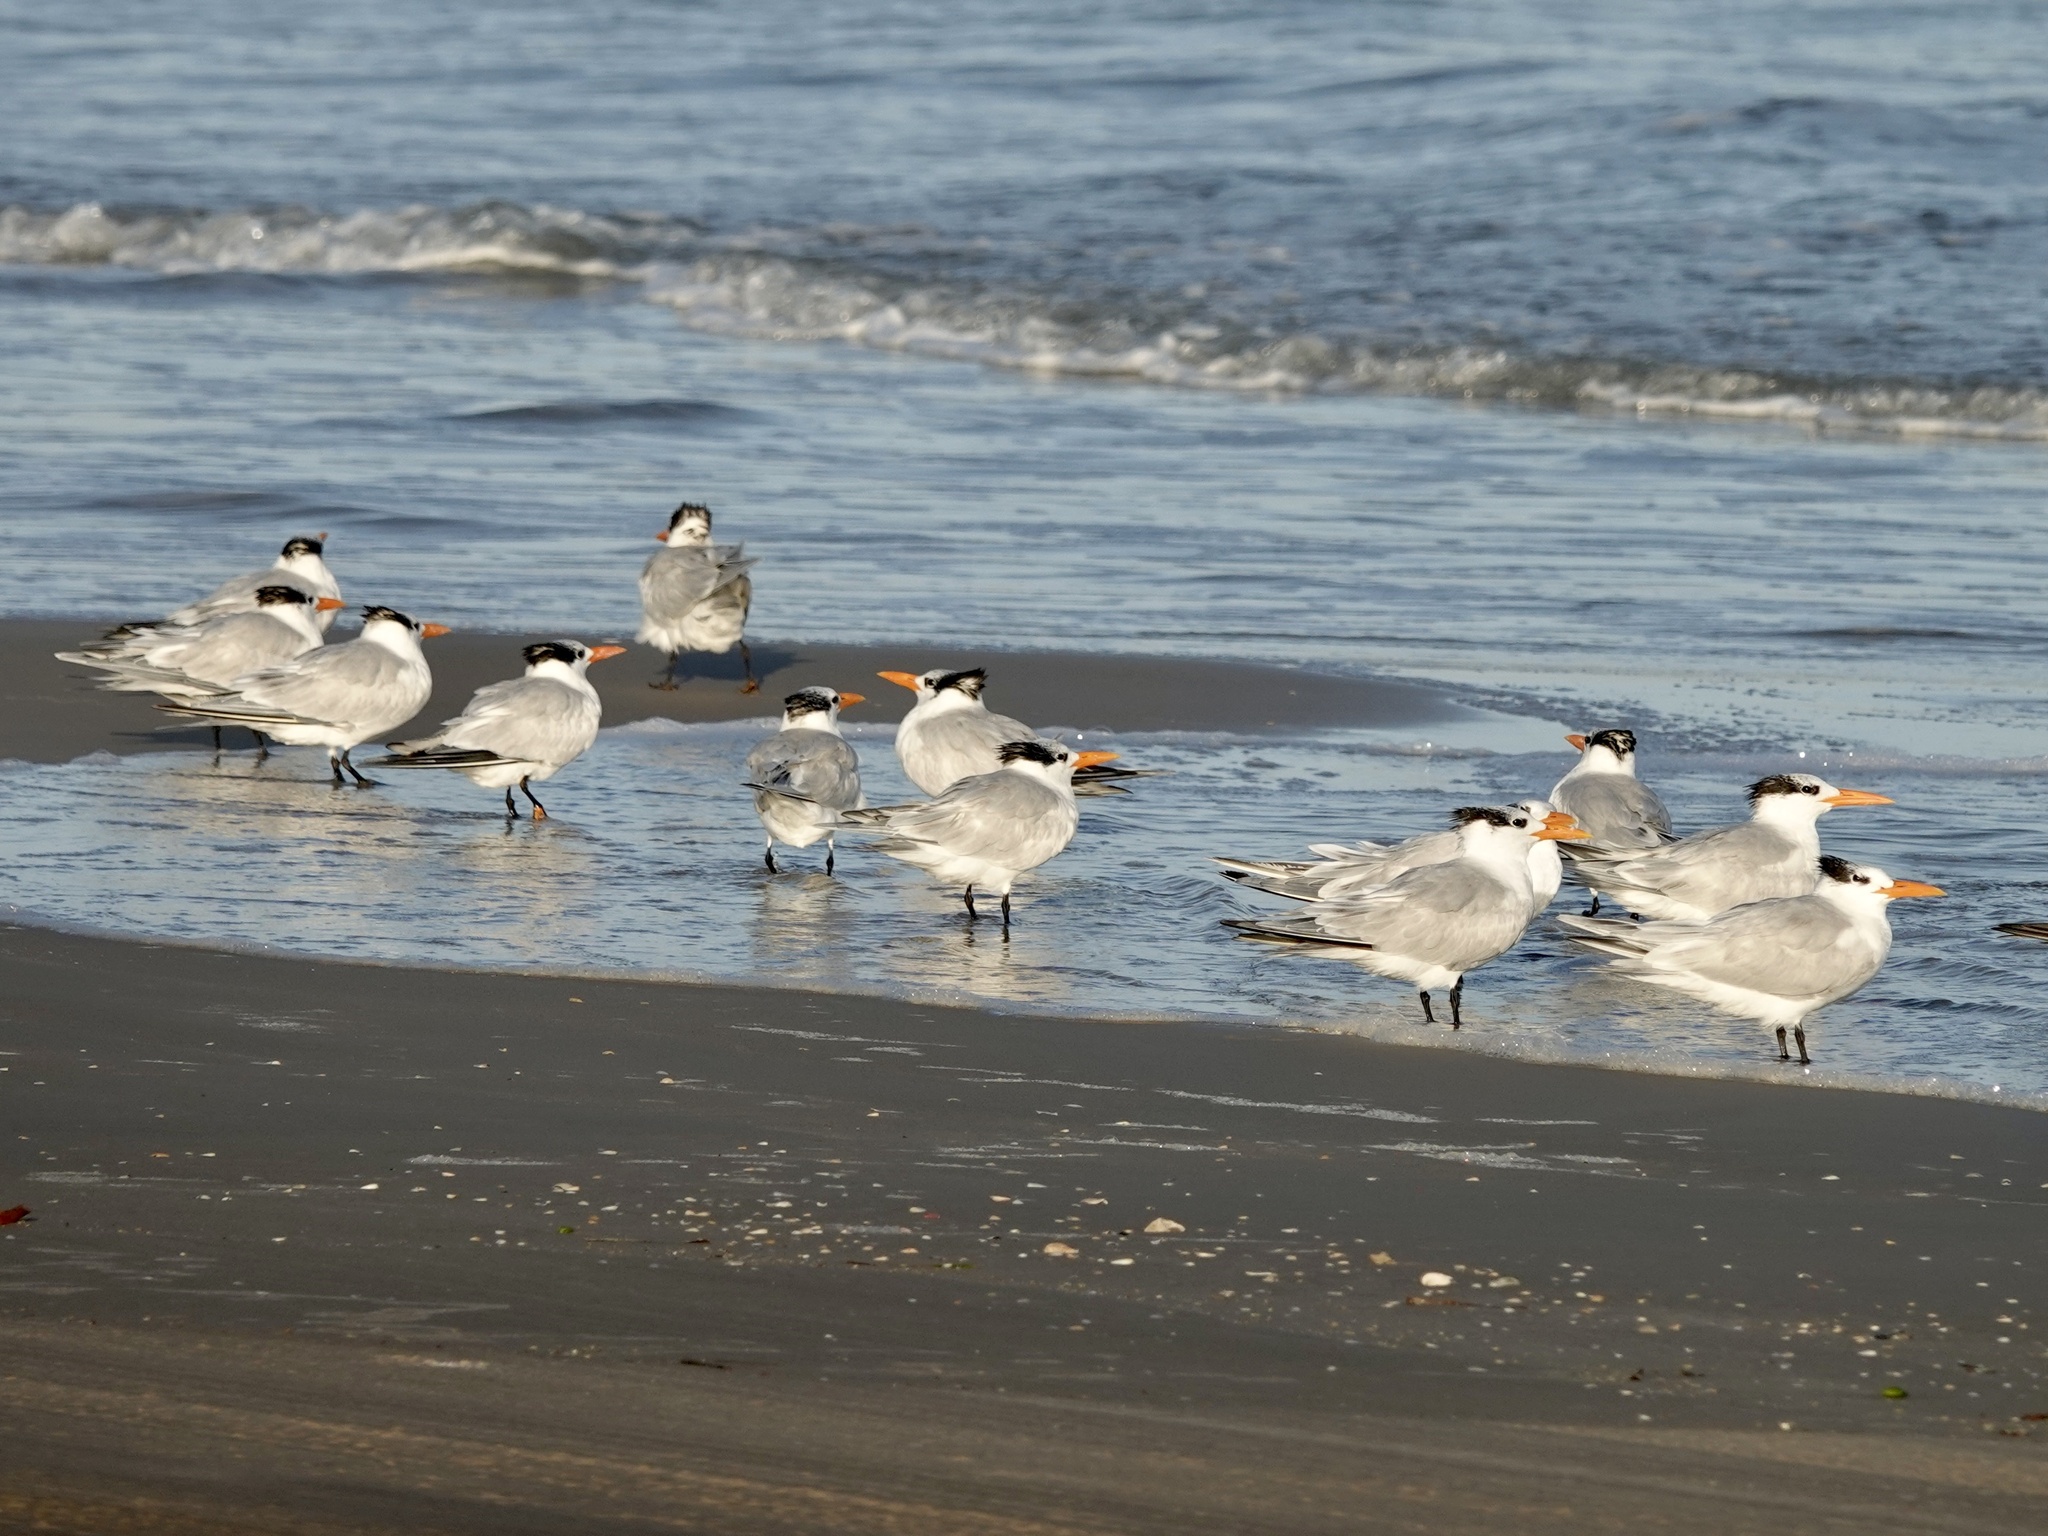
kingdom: Animalia
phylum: Chordata
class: Aves
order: Charadriiformes
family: Laridae
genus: Thalasseus
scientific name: Thalasseus maximus
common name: Royal tern
